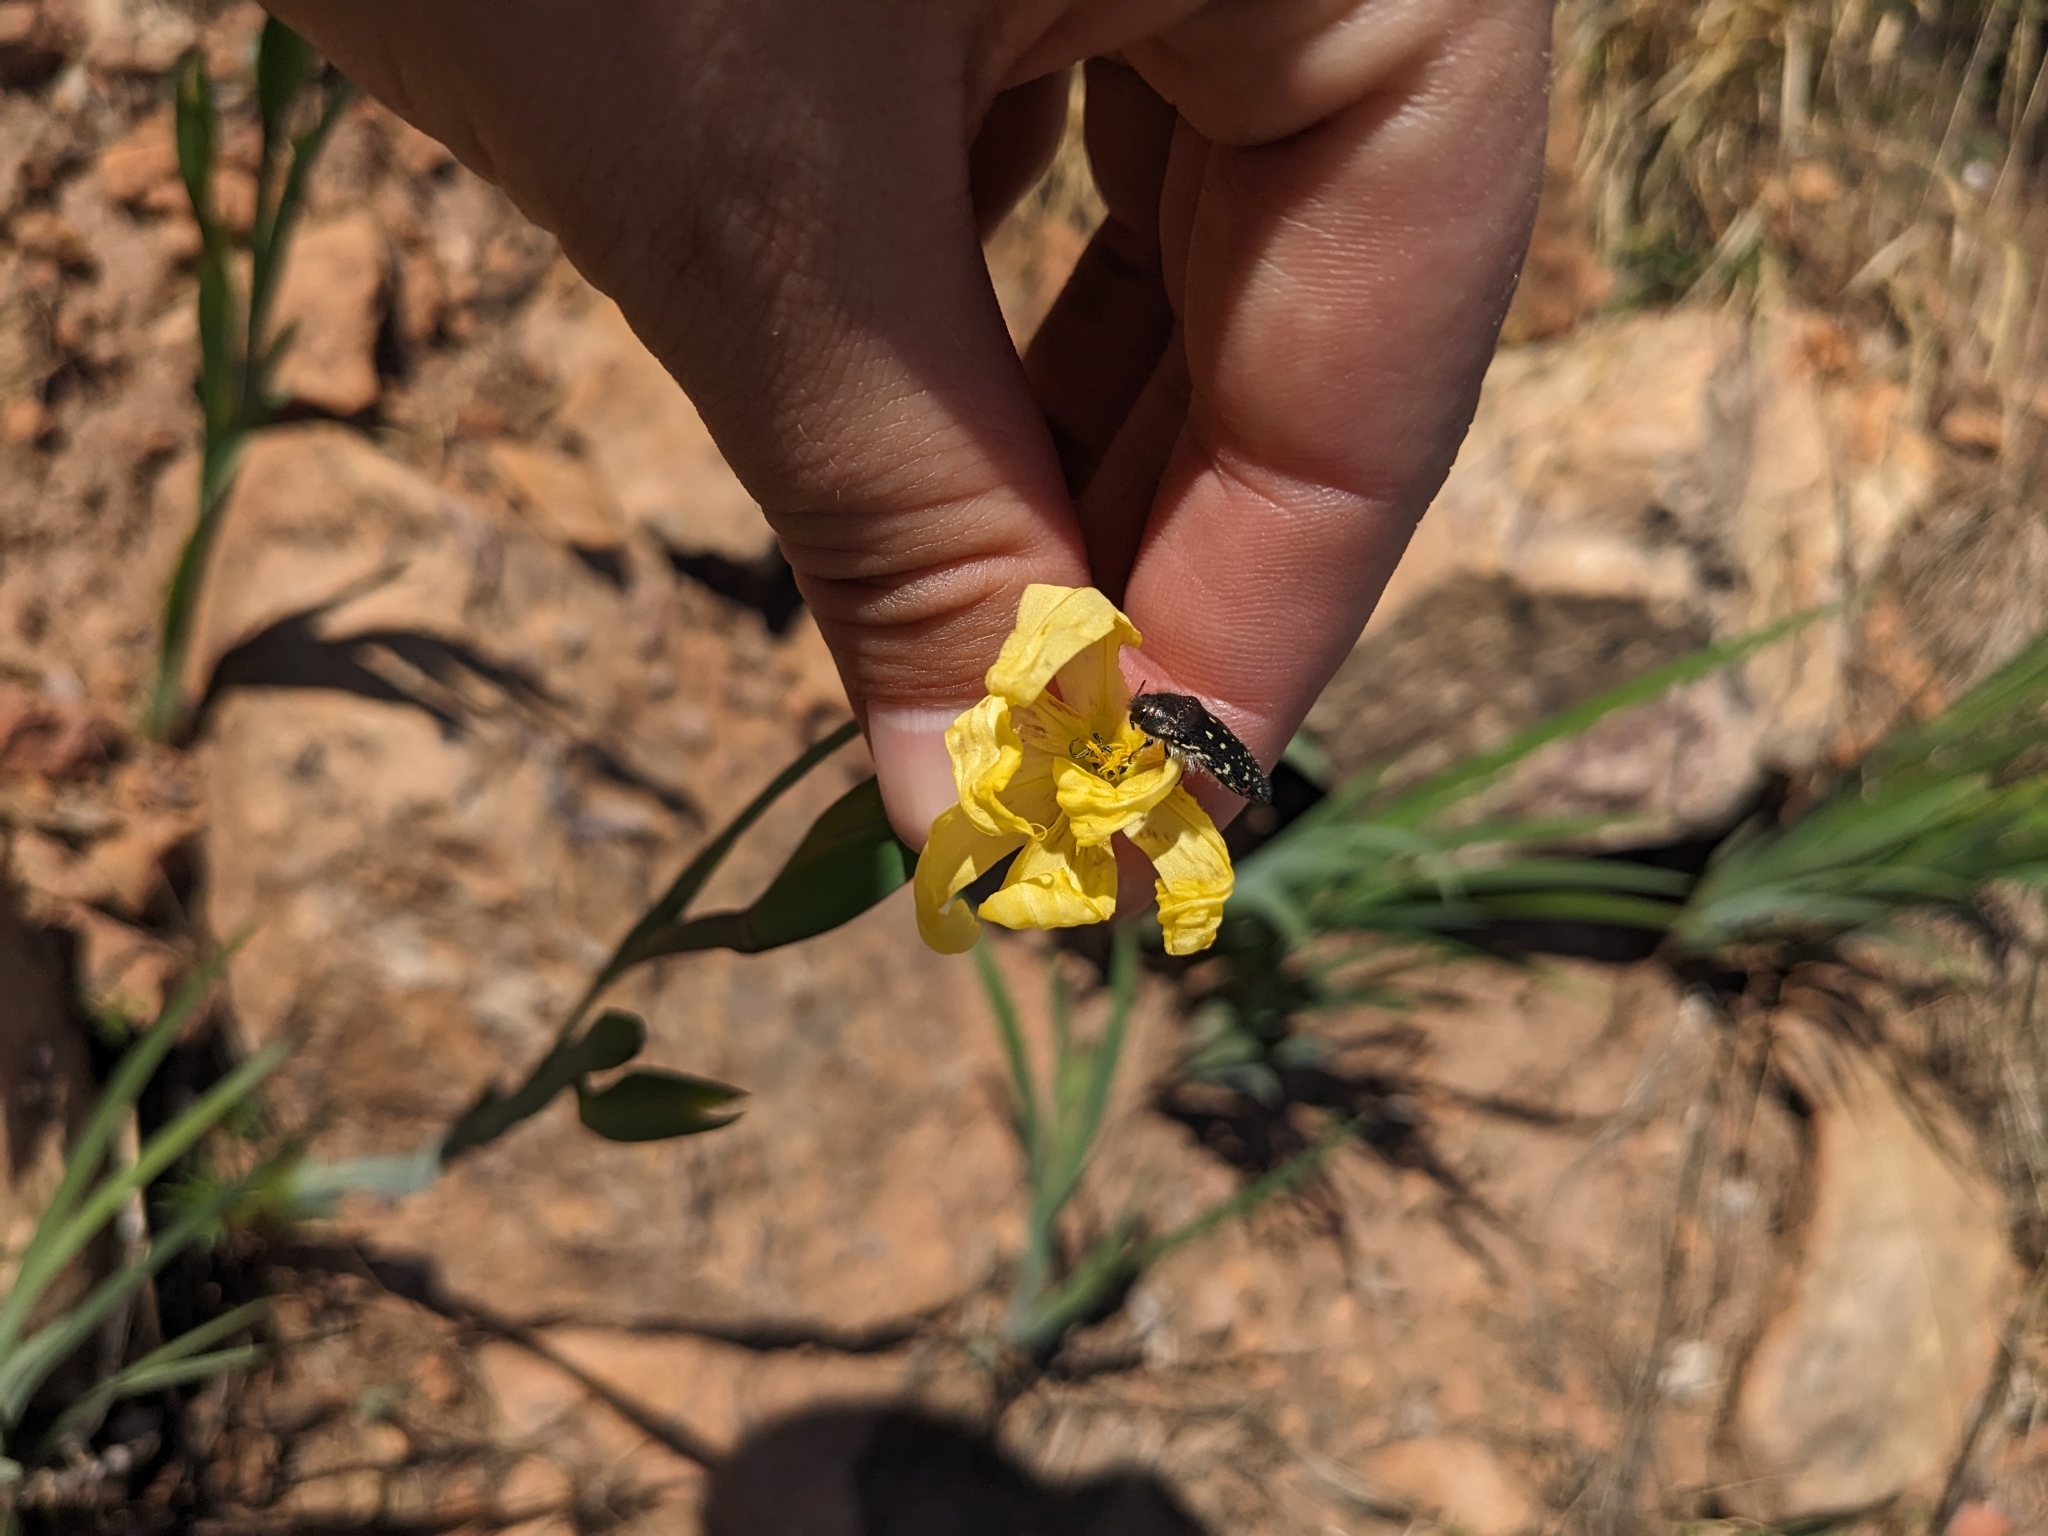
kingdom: Animalia
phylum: Arthropoda
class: Insecta
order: Coleoptera
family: Buprestidae
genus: Acmaeodera
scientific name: Acmaeodera rubronotata
